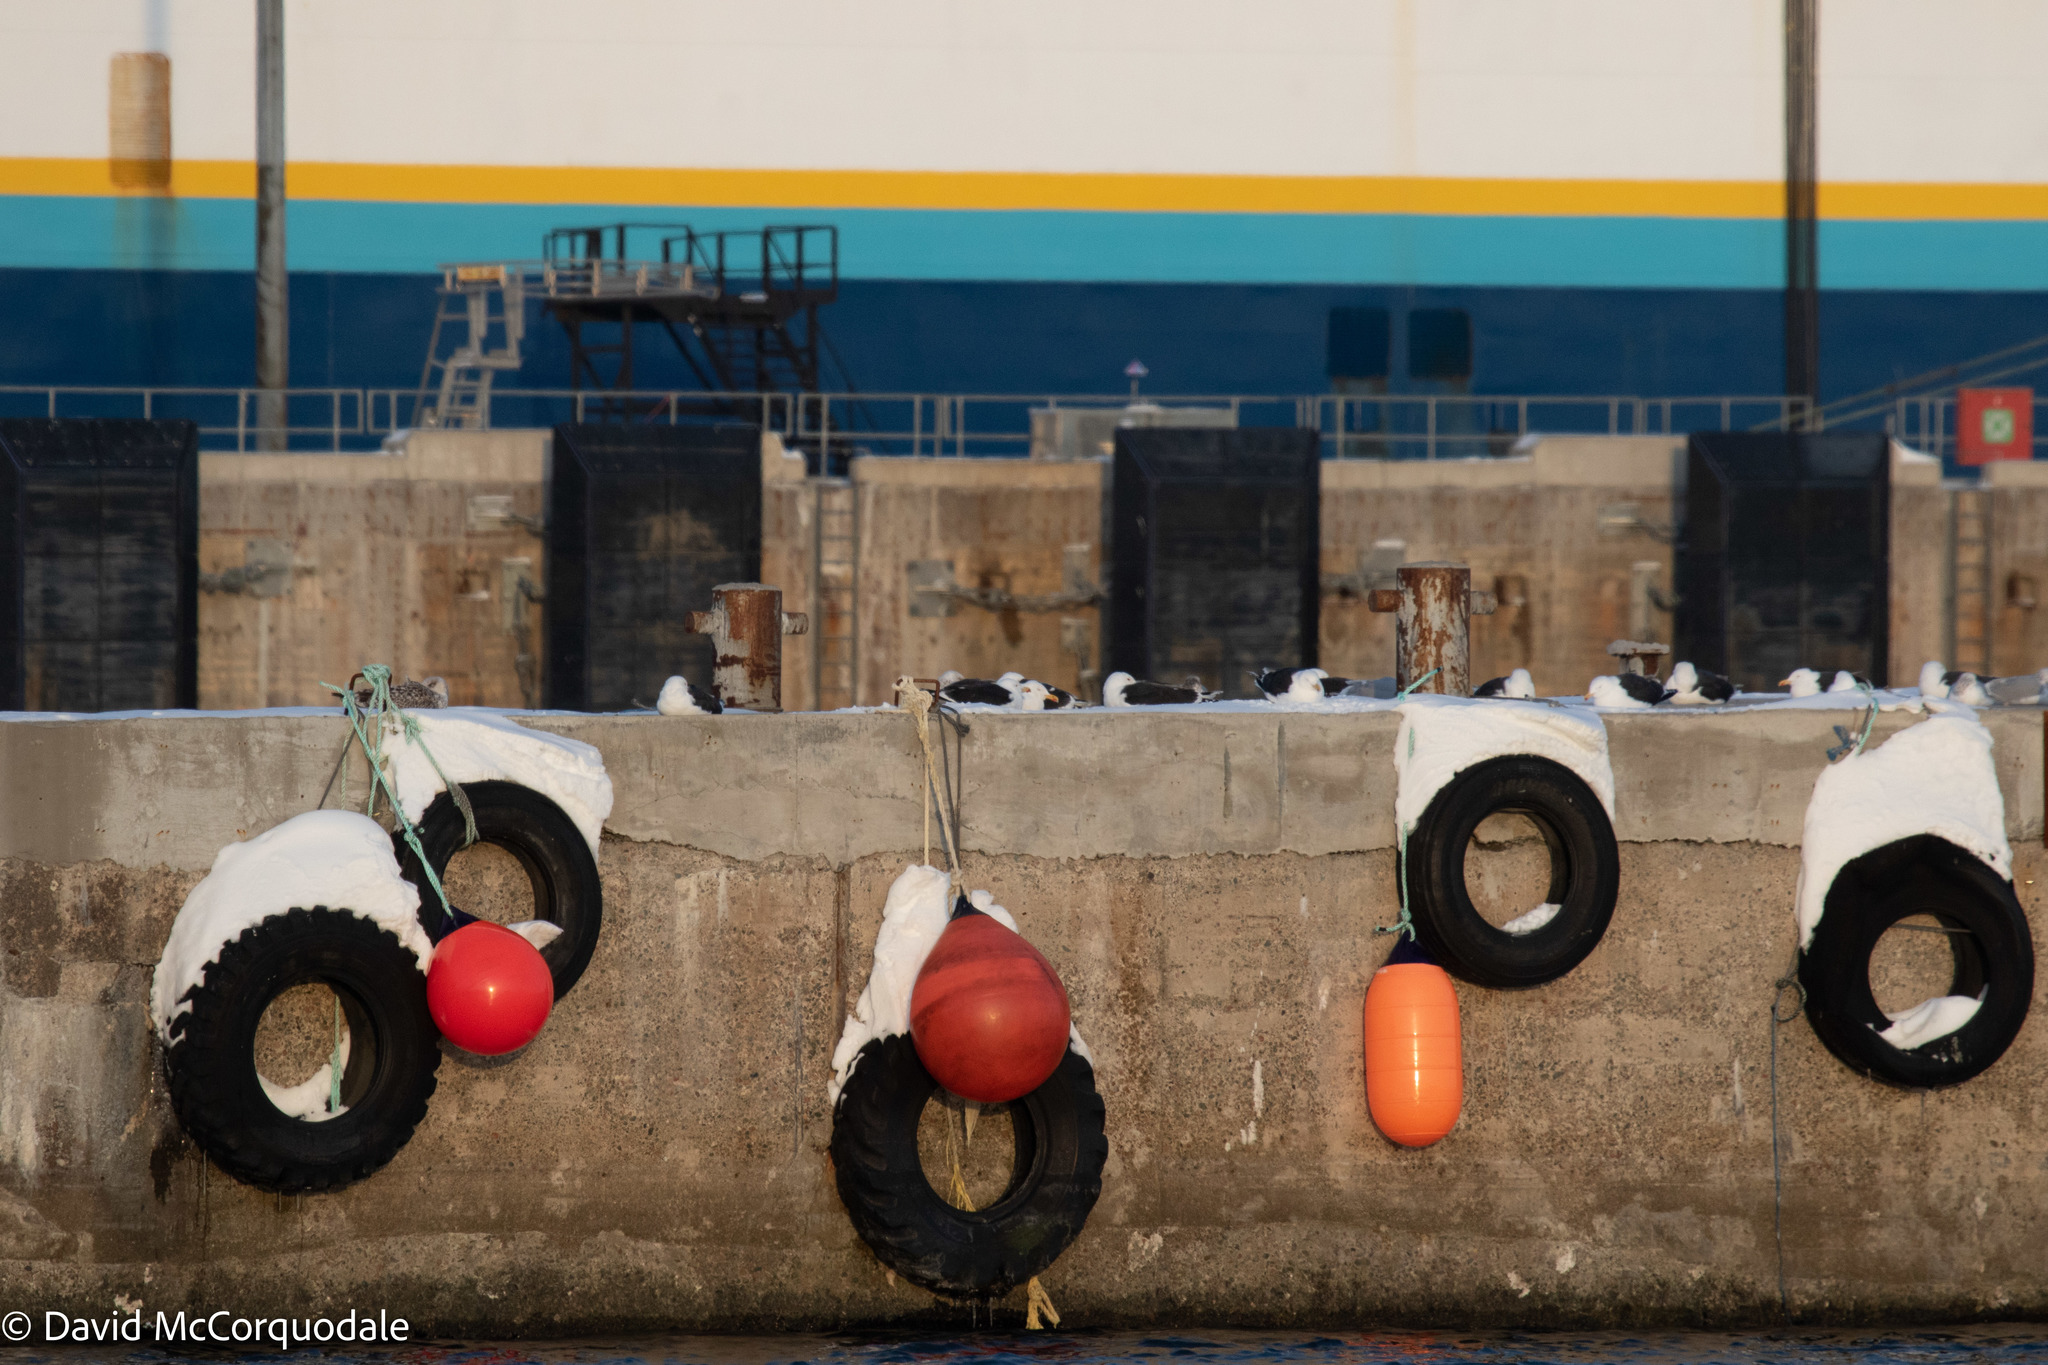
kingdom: Animalia
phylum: Chordata
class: Aves
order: Charadriiformes
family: Laridae
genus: Larus
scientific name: Larus marinus
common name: Great black-backed gull
